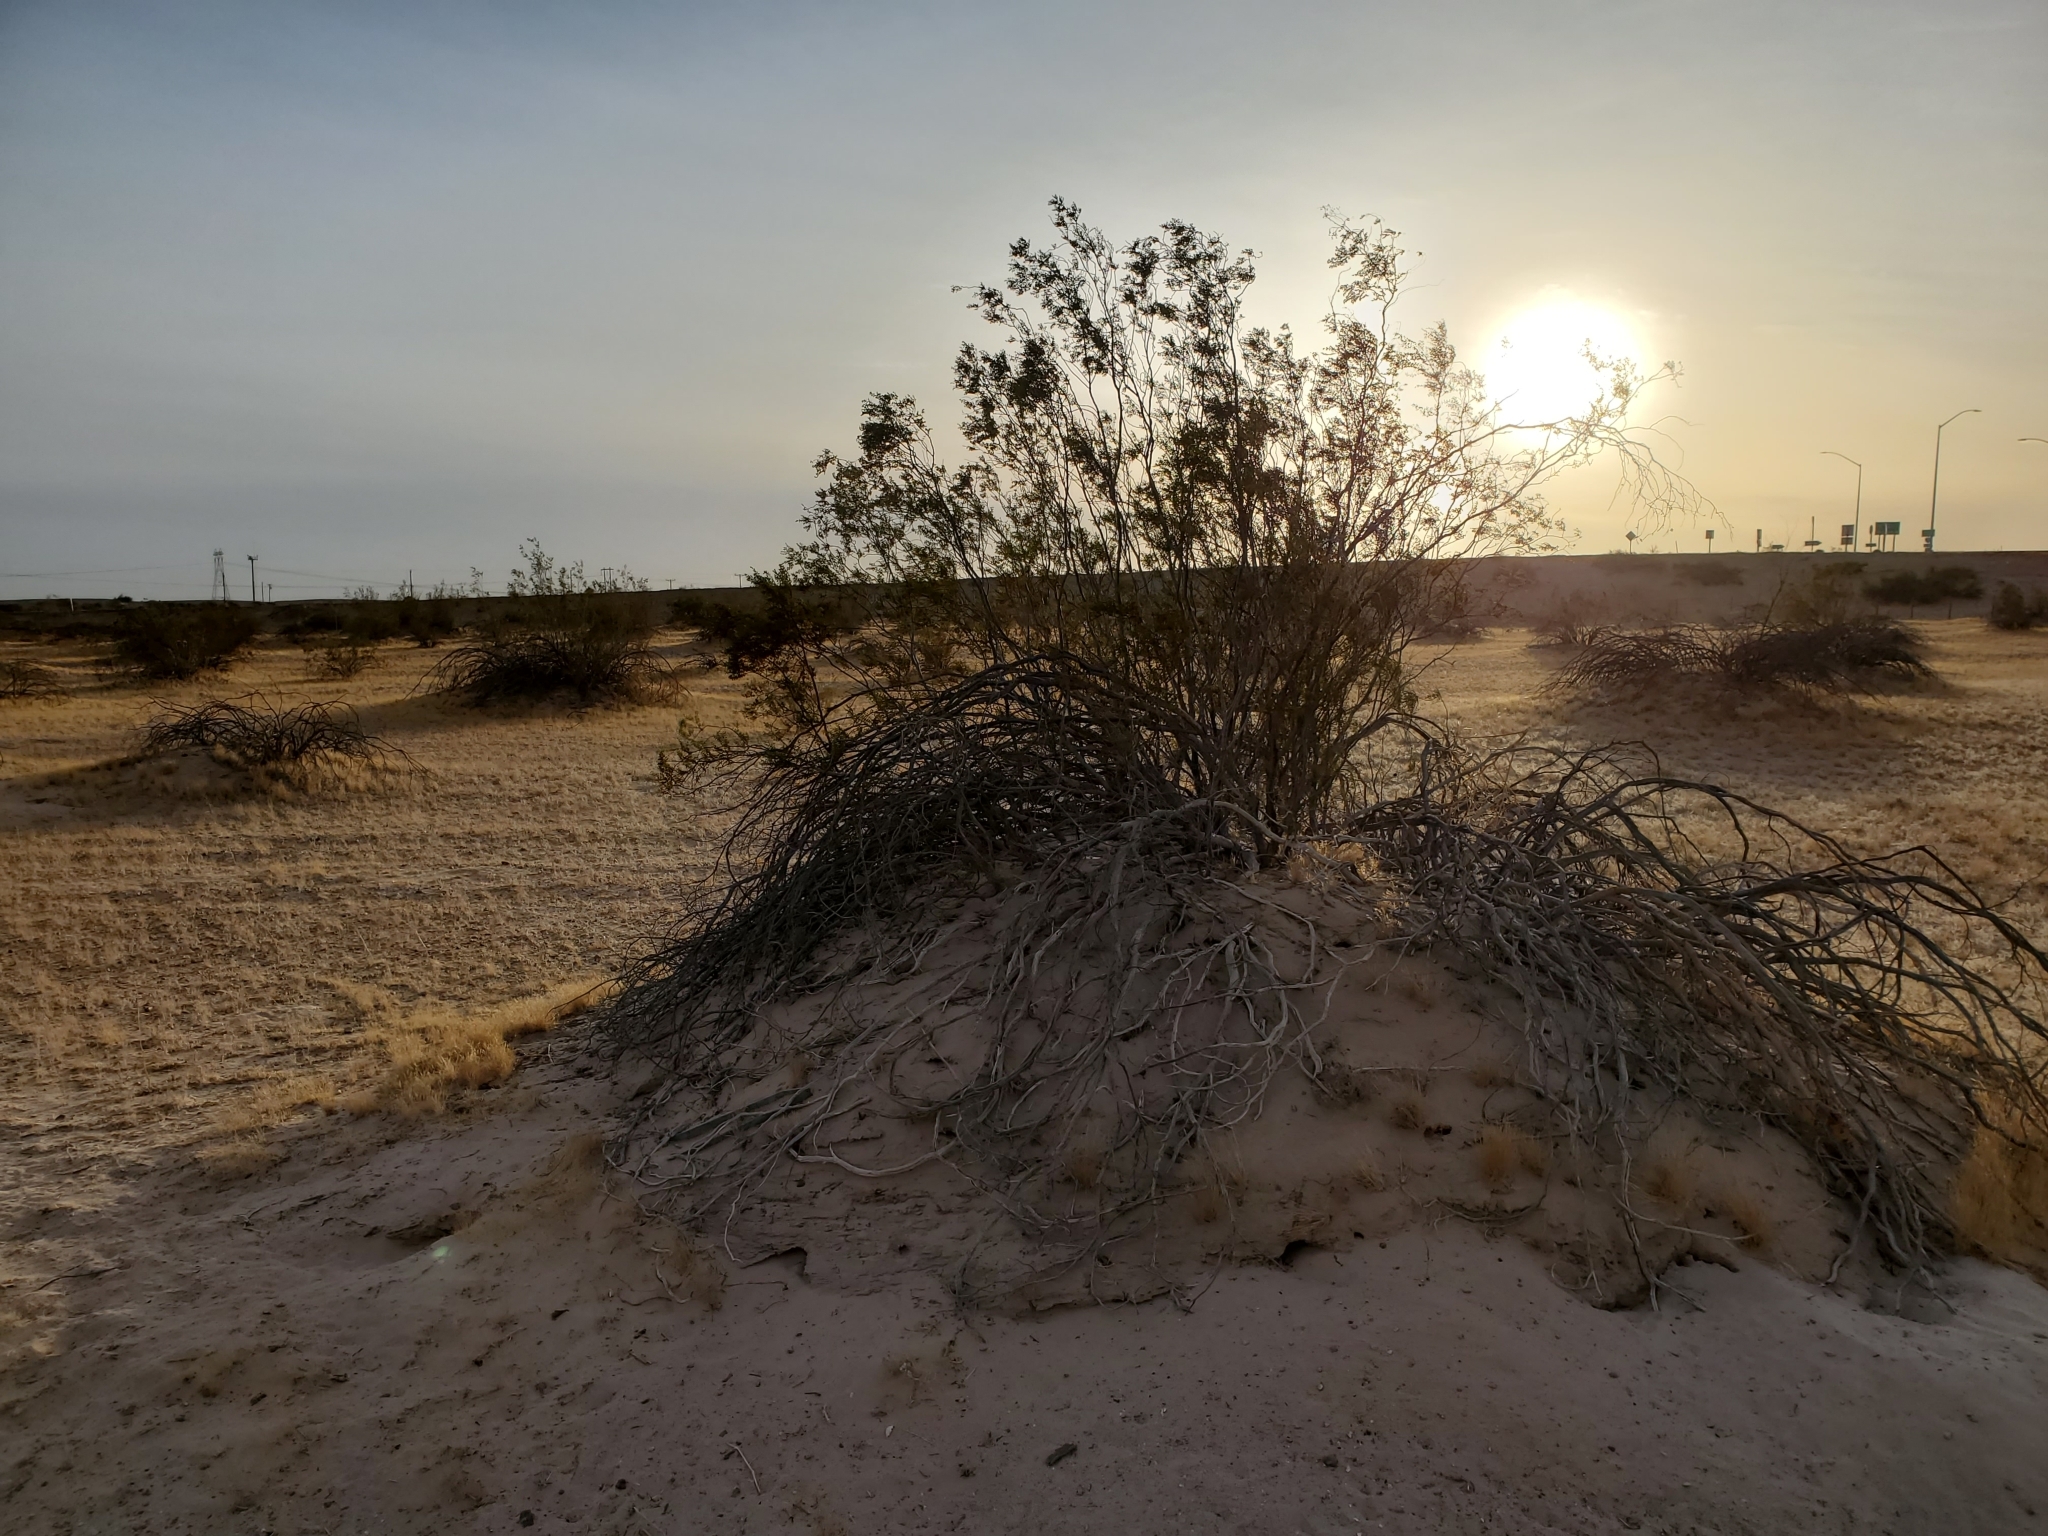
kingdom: Plantae
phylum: Tracheophyta
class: Magnoliopsida
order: Zygophyllales
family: Zygophyllaceae
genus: Larrea
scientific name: Larrea tridentata
